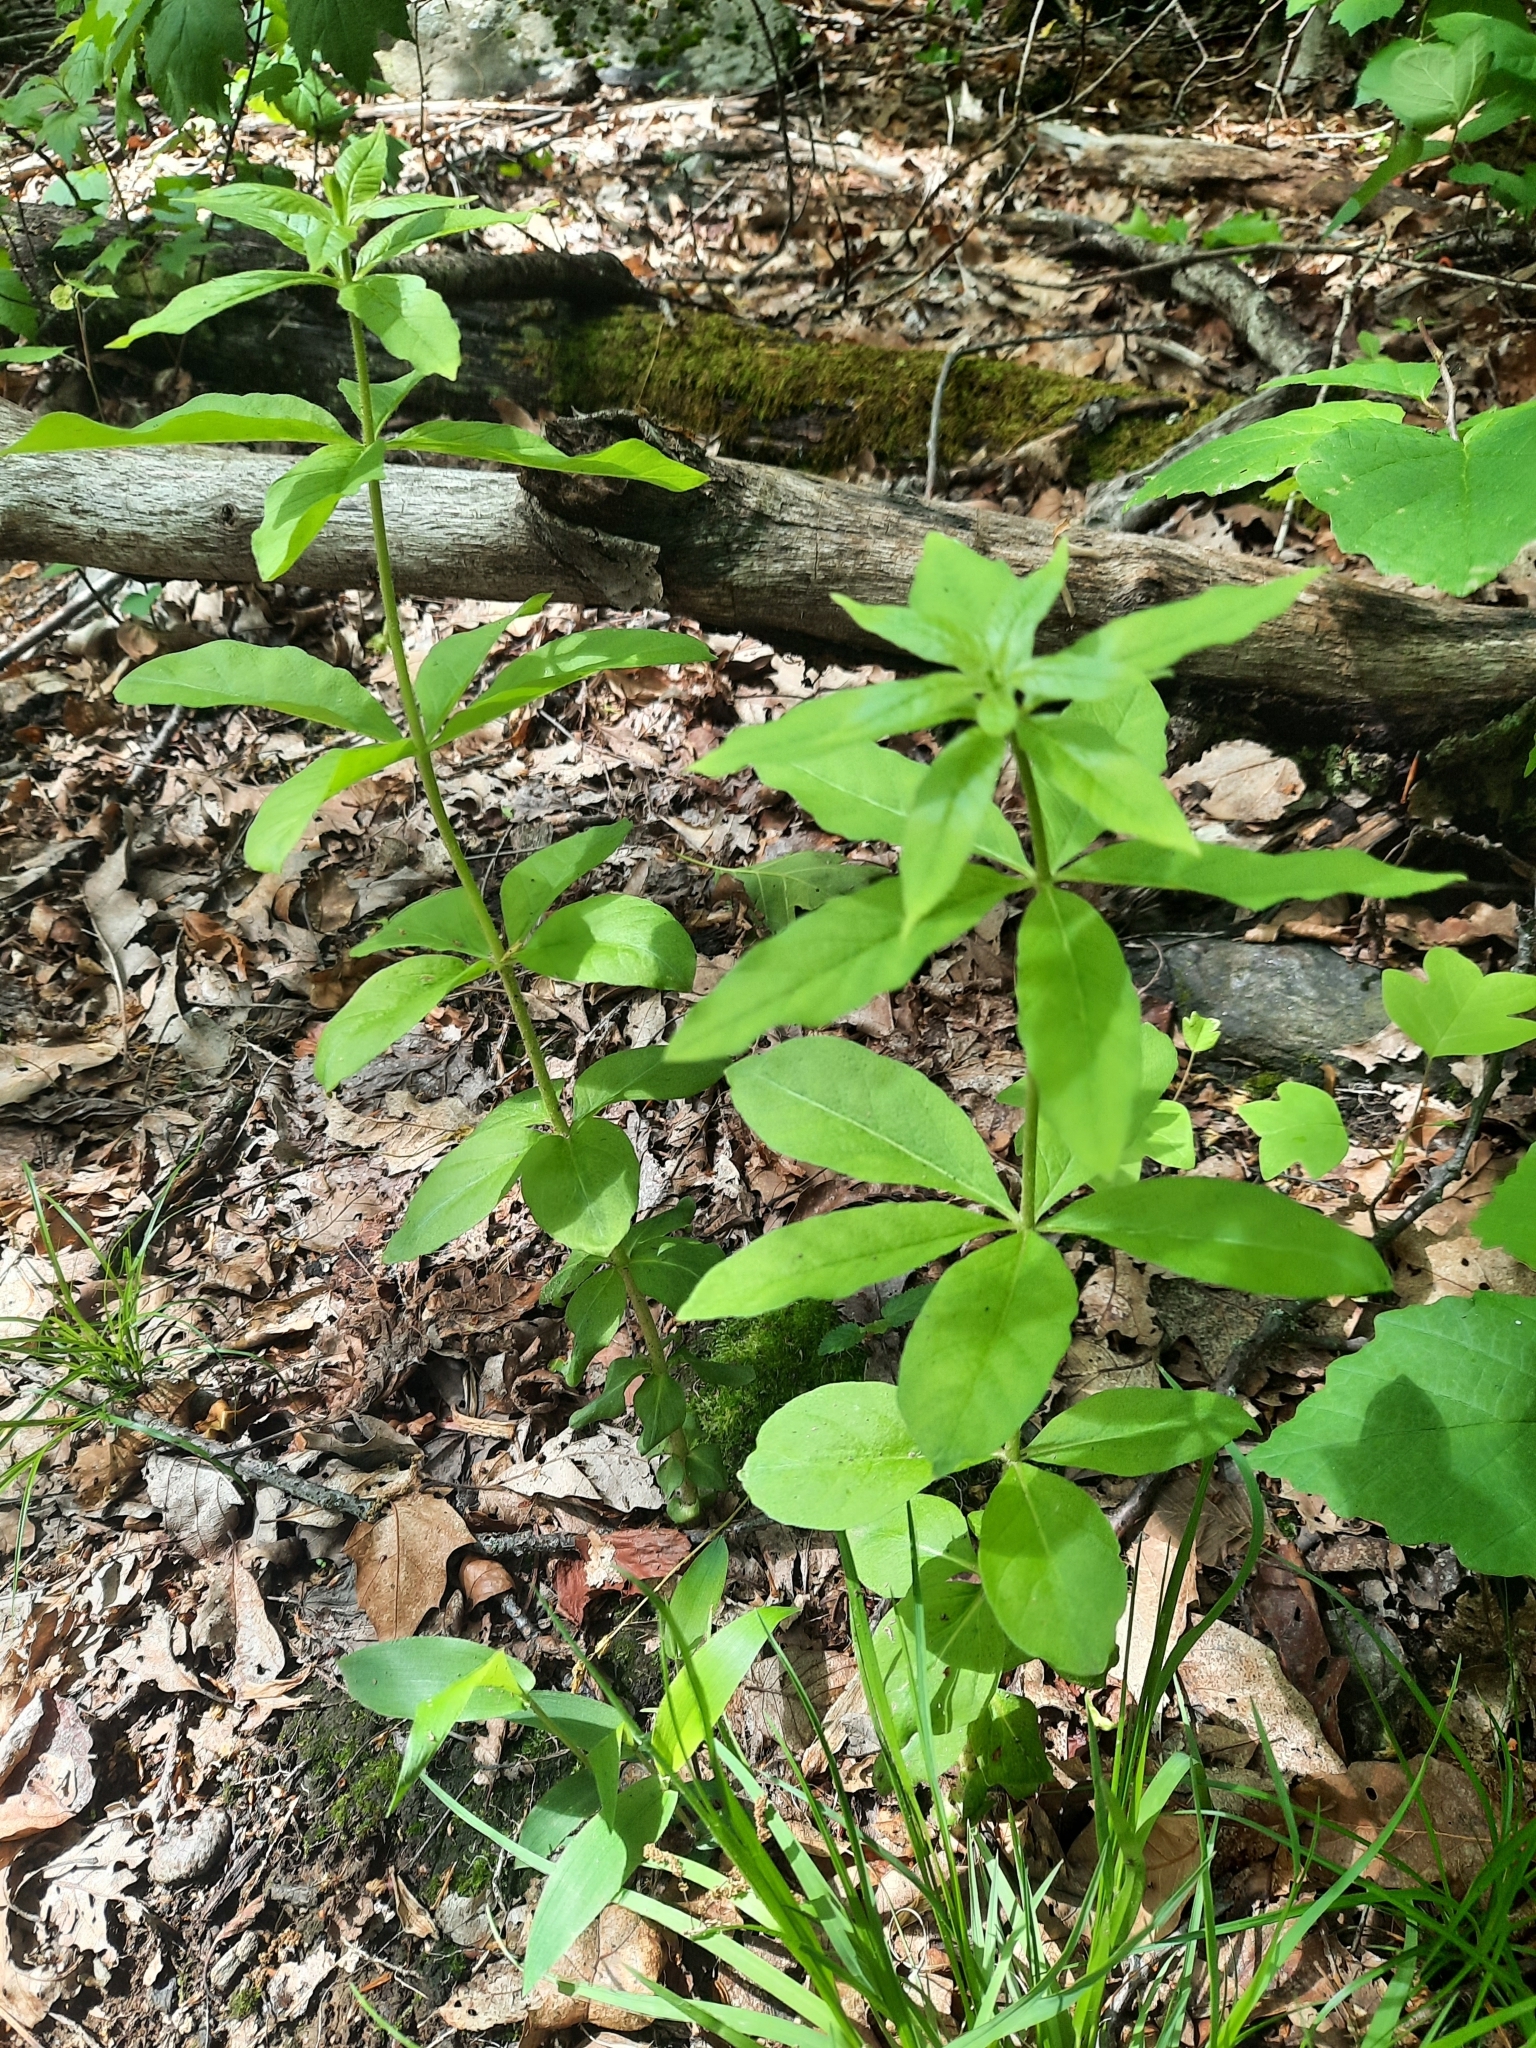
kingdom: Plantae
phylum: Tracheophyta
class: Magnoliopsida
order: Ericales
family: Primulaceae
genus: Lysimachia
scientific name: Lysimachia quadrifolia
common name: Whorled loosestrife
